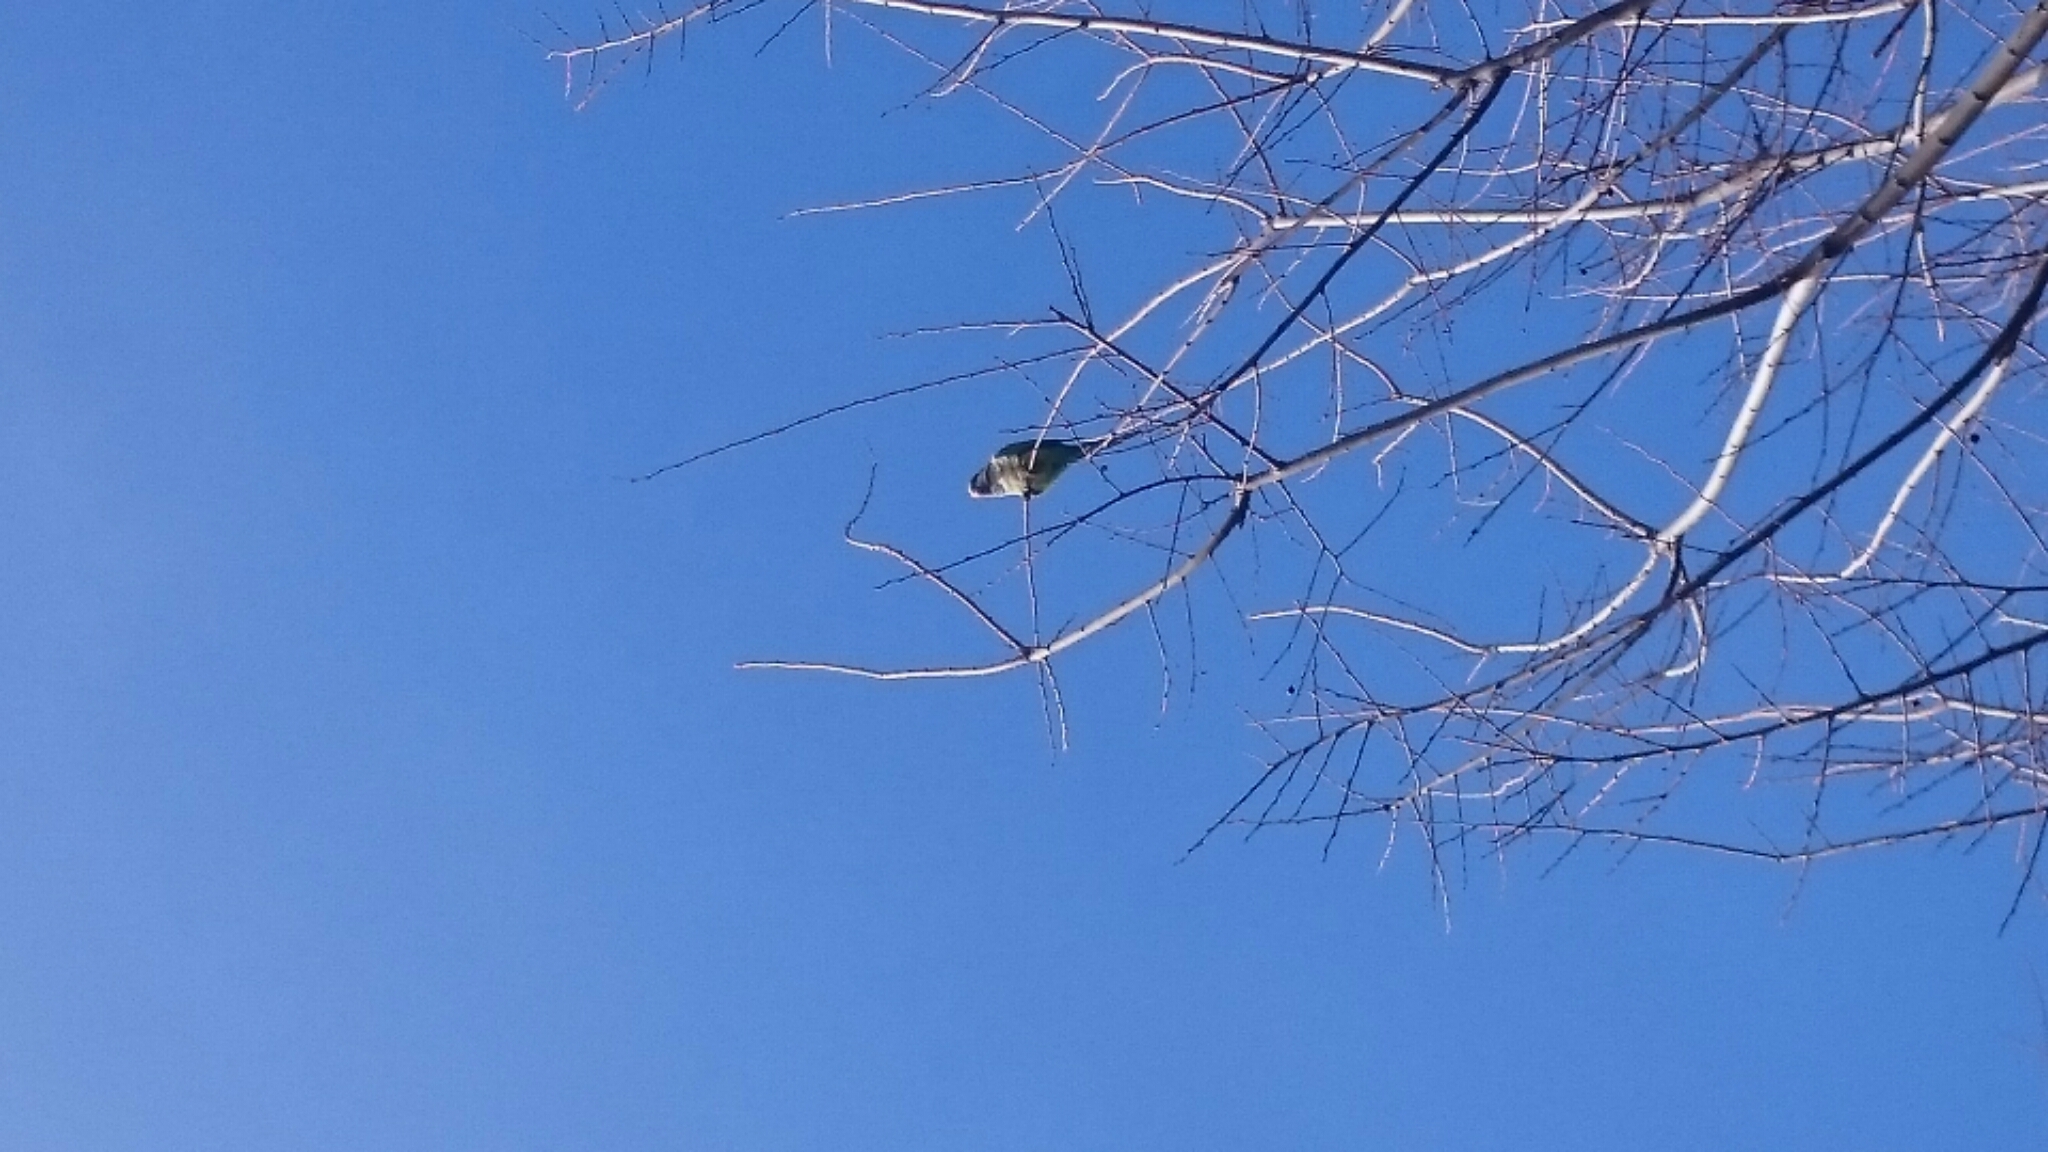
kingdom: Animalia
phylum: Chordata
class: Aves
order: Psittaciformes
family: Psittacidae
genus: Myiopsitta
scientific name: Myiopsitta monachus
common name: Monk parakeet
